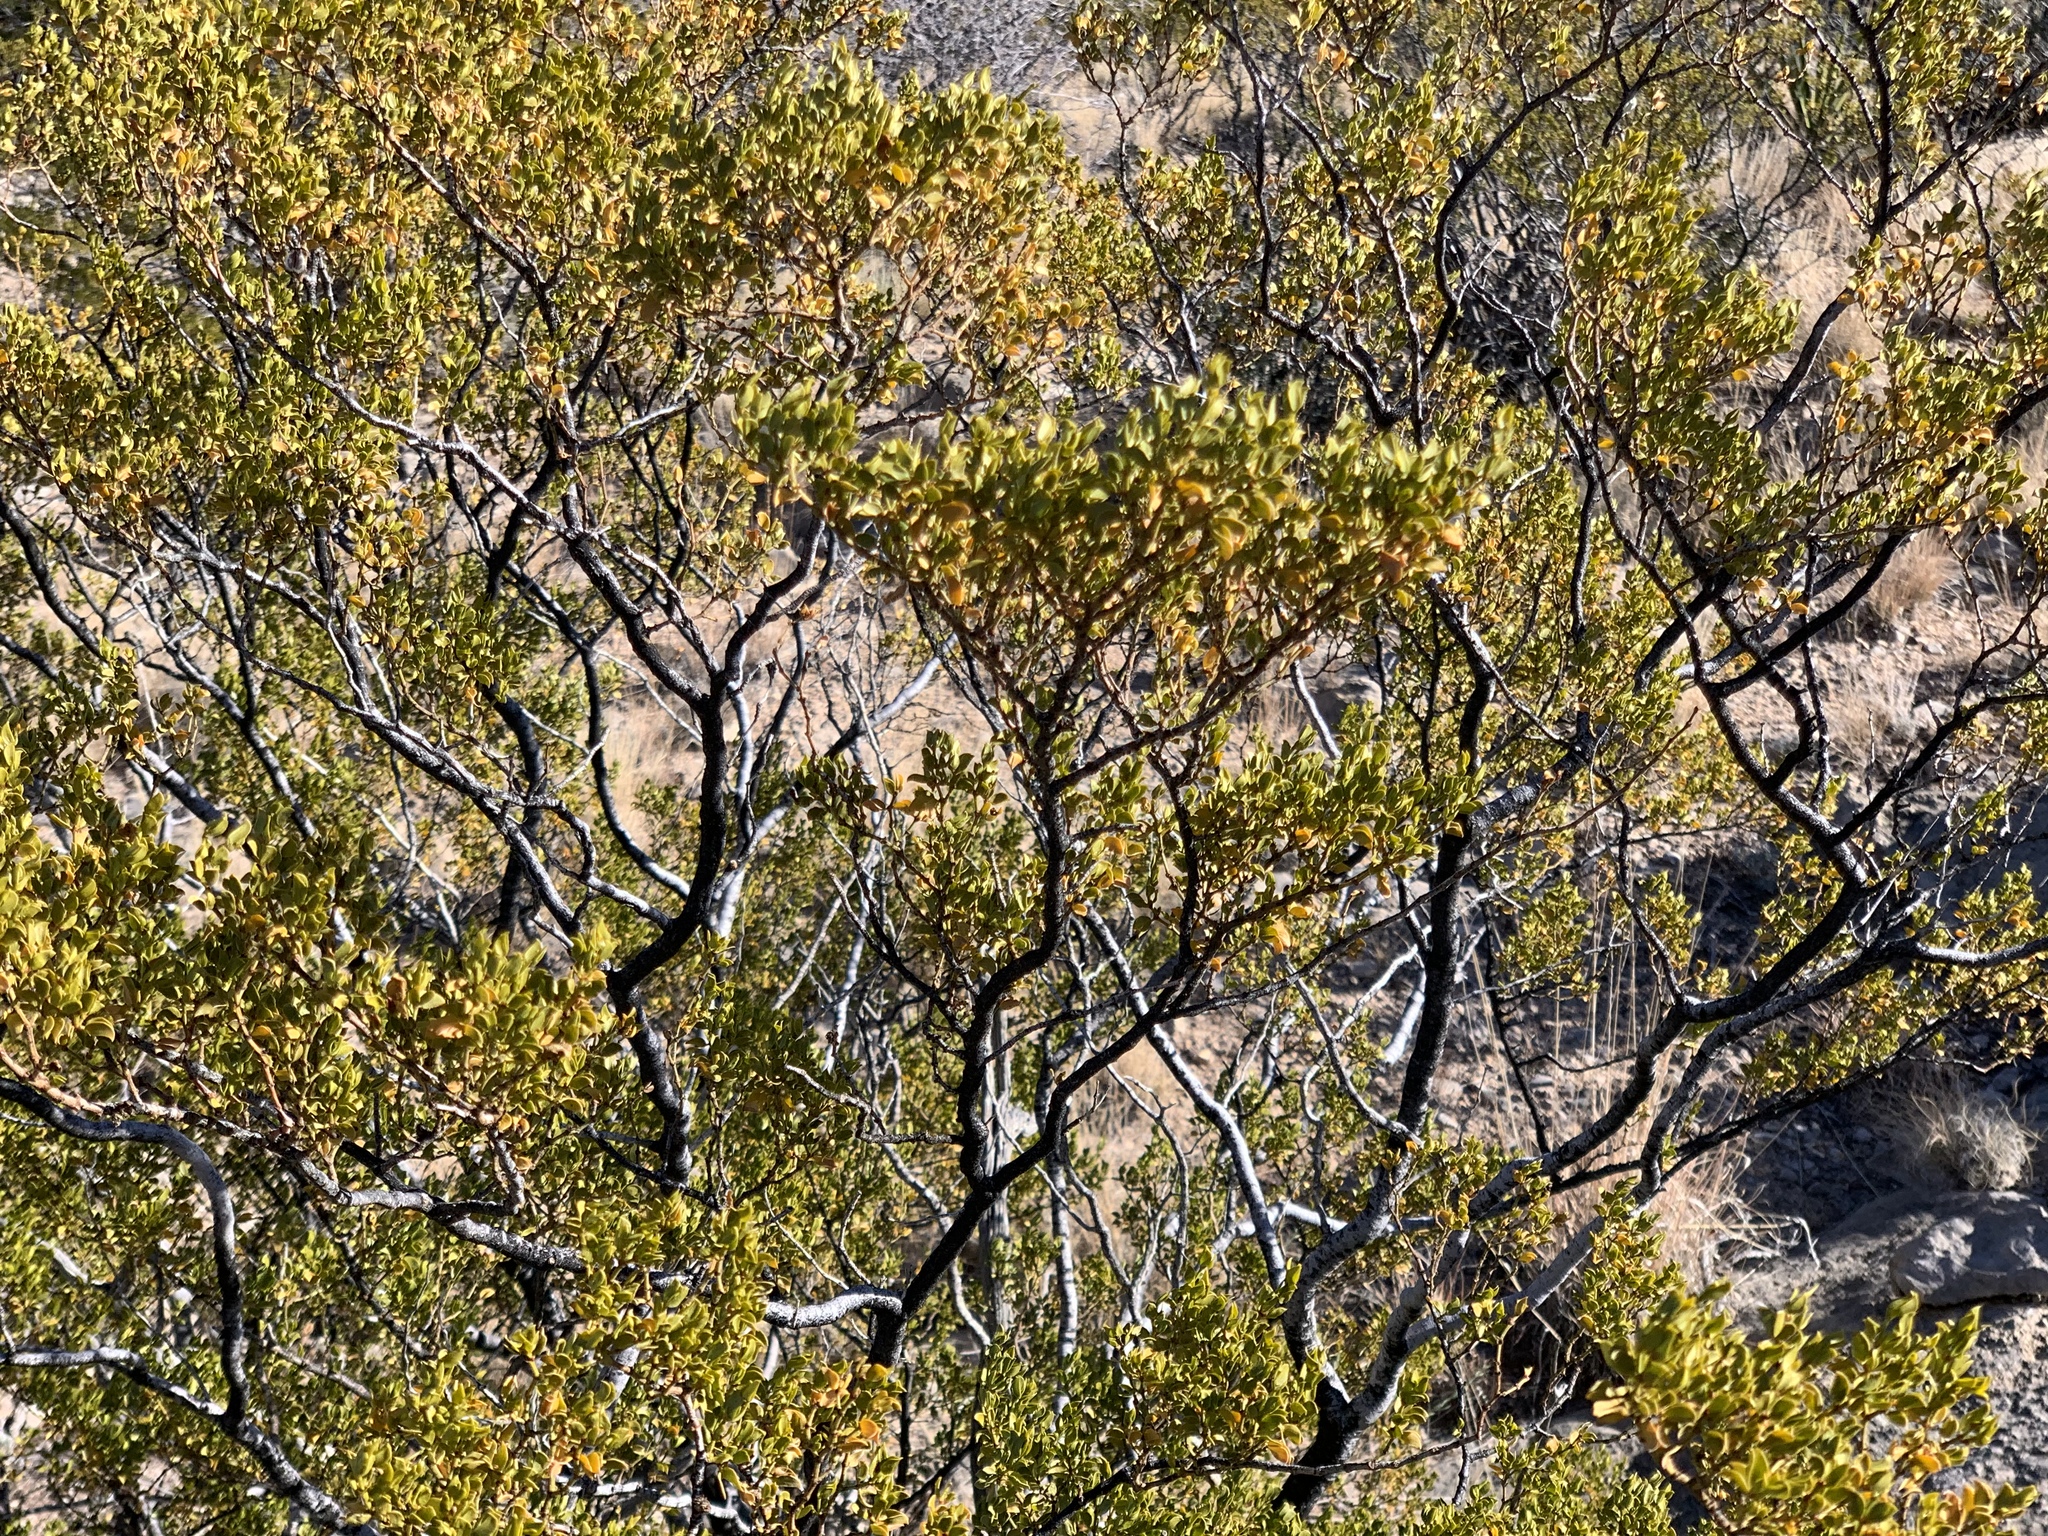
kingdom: Plantae
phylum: Tracheophyta
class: Magnoliopsida
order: Zygophyllales
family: Zygophyllaceae
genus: Larrea
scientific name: Larrea tridentata
